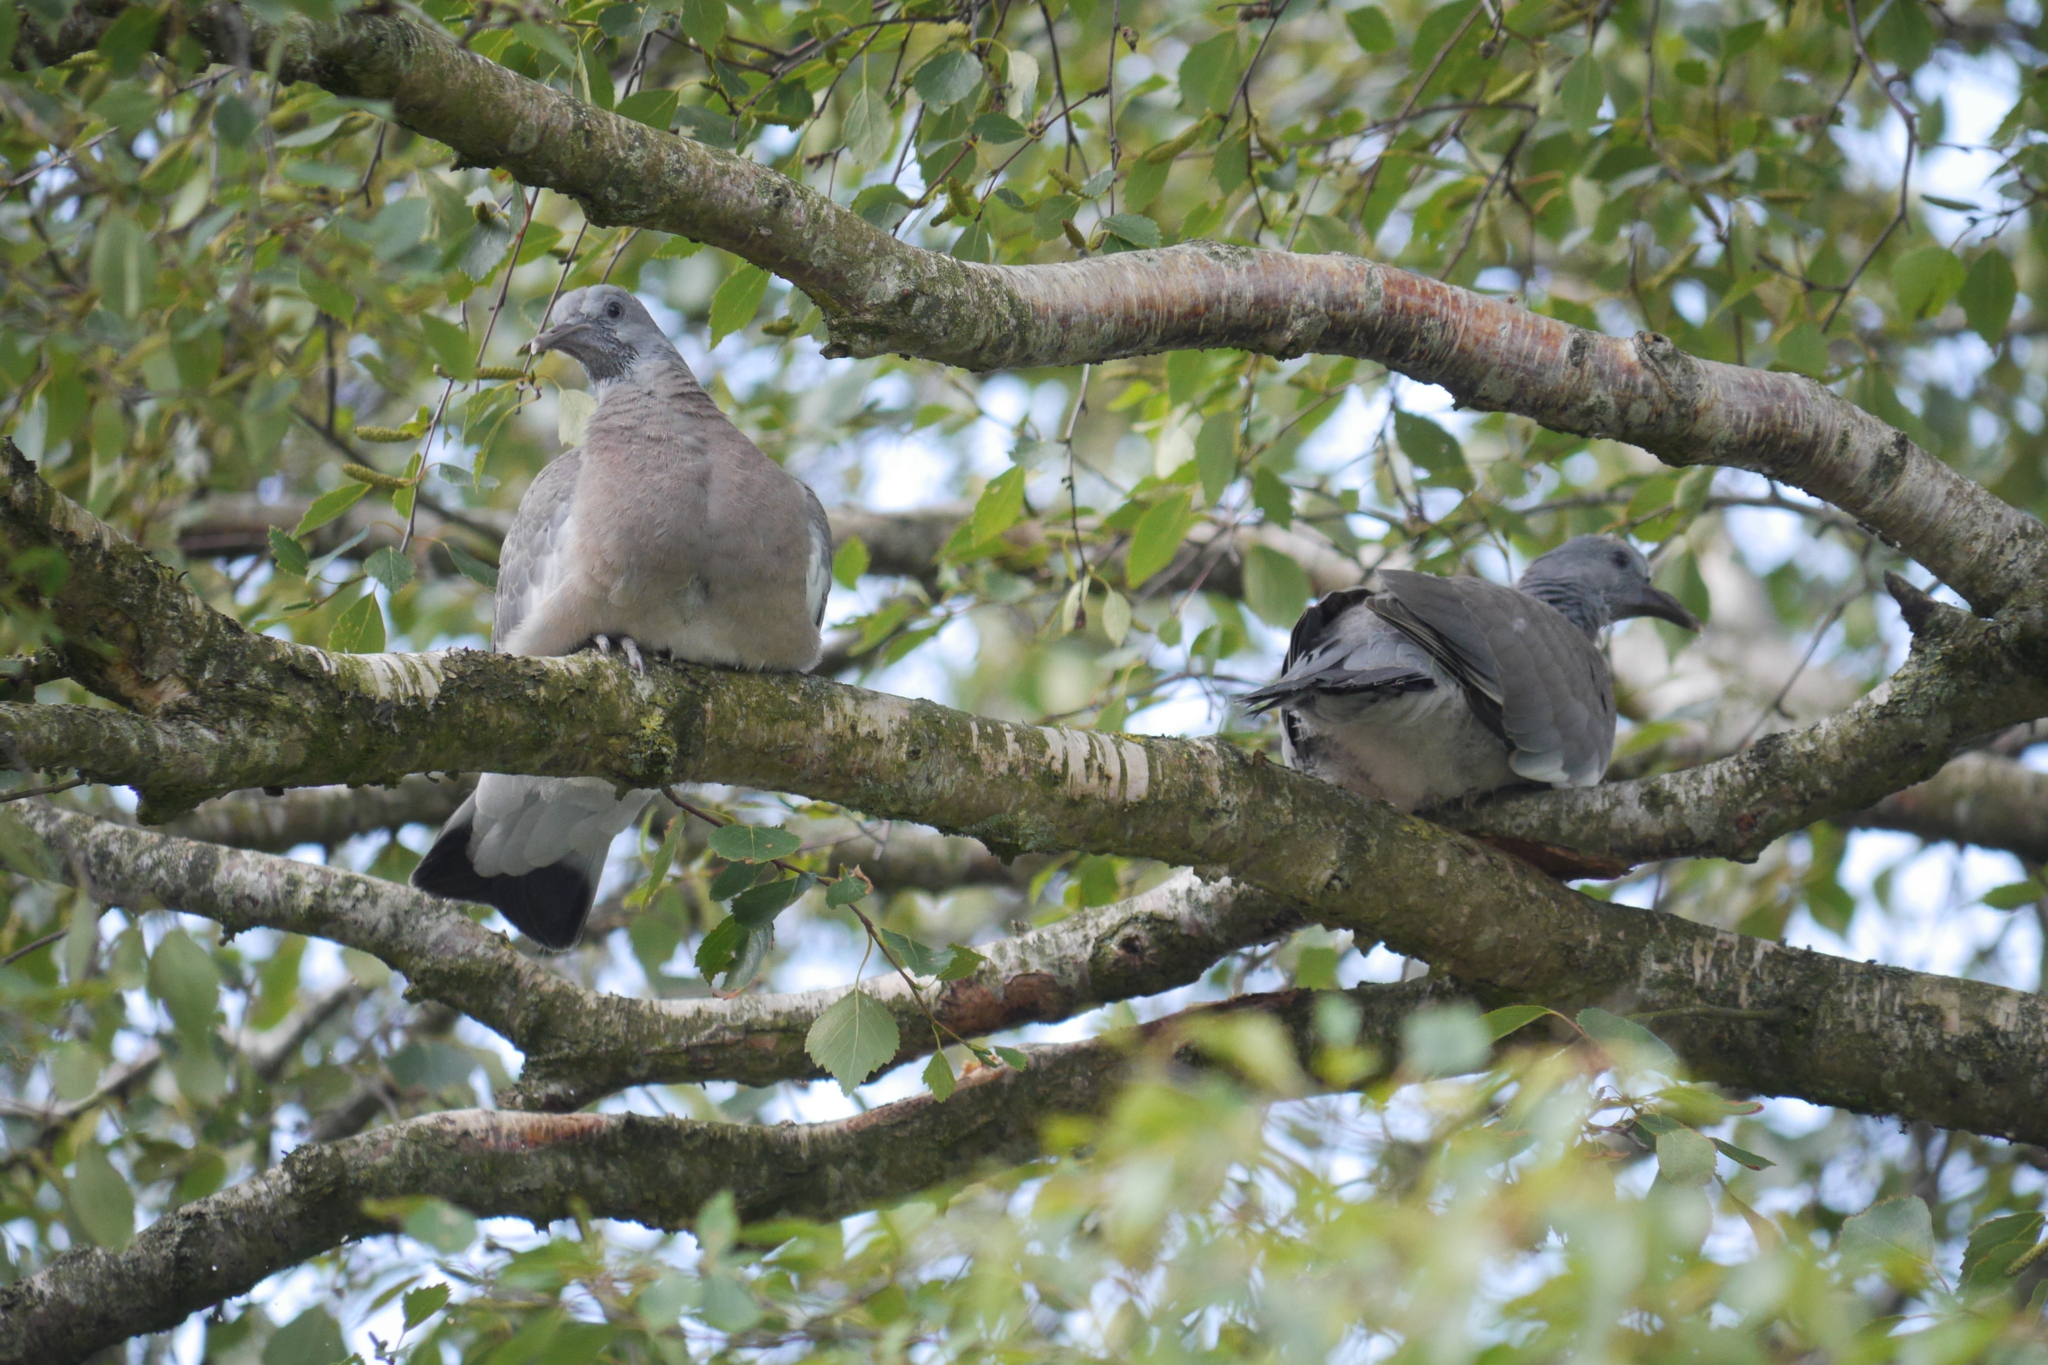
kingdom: Animalia
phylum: Chordata
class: Aves
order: Columbiformes
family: Columbidae
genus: Columba
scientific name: Columba palumbus
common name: Common wood pigeon
